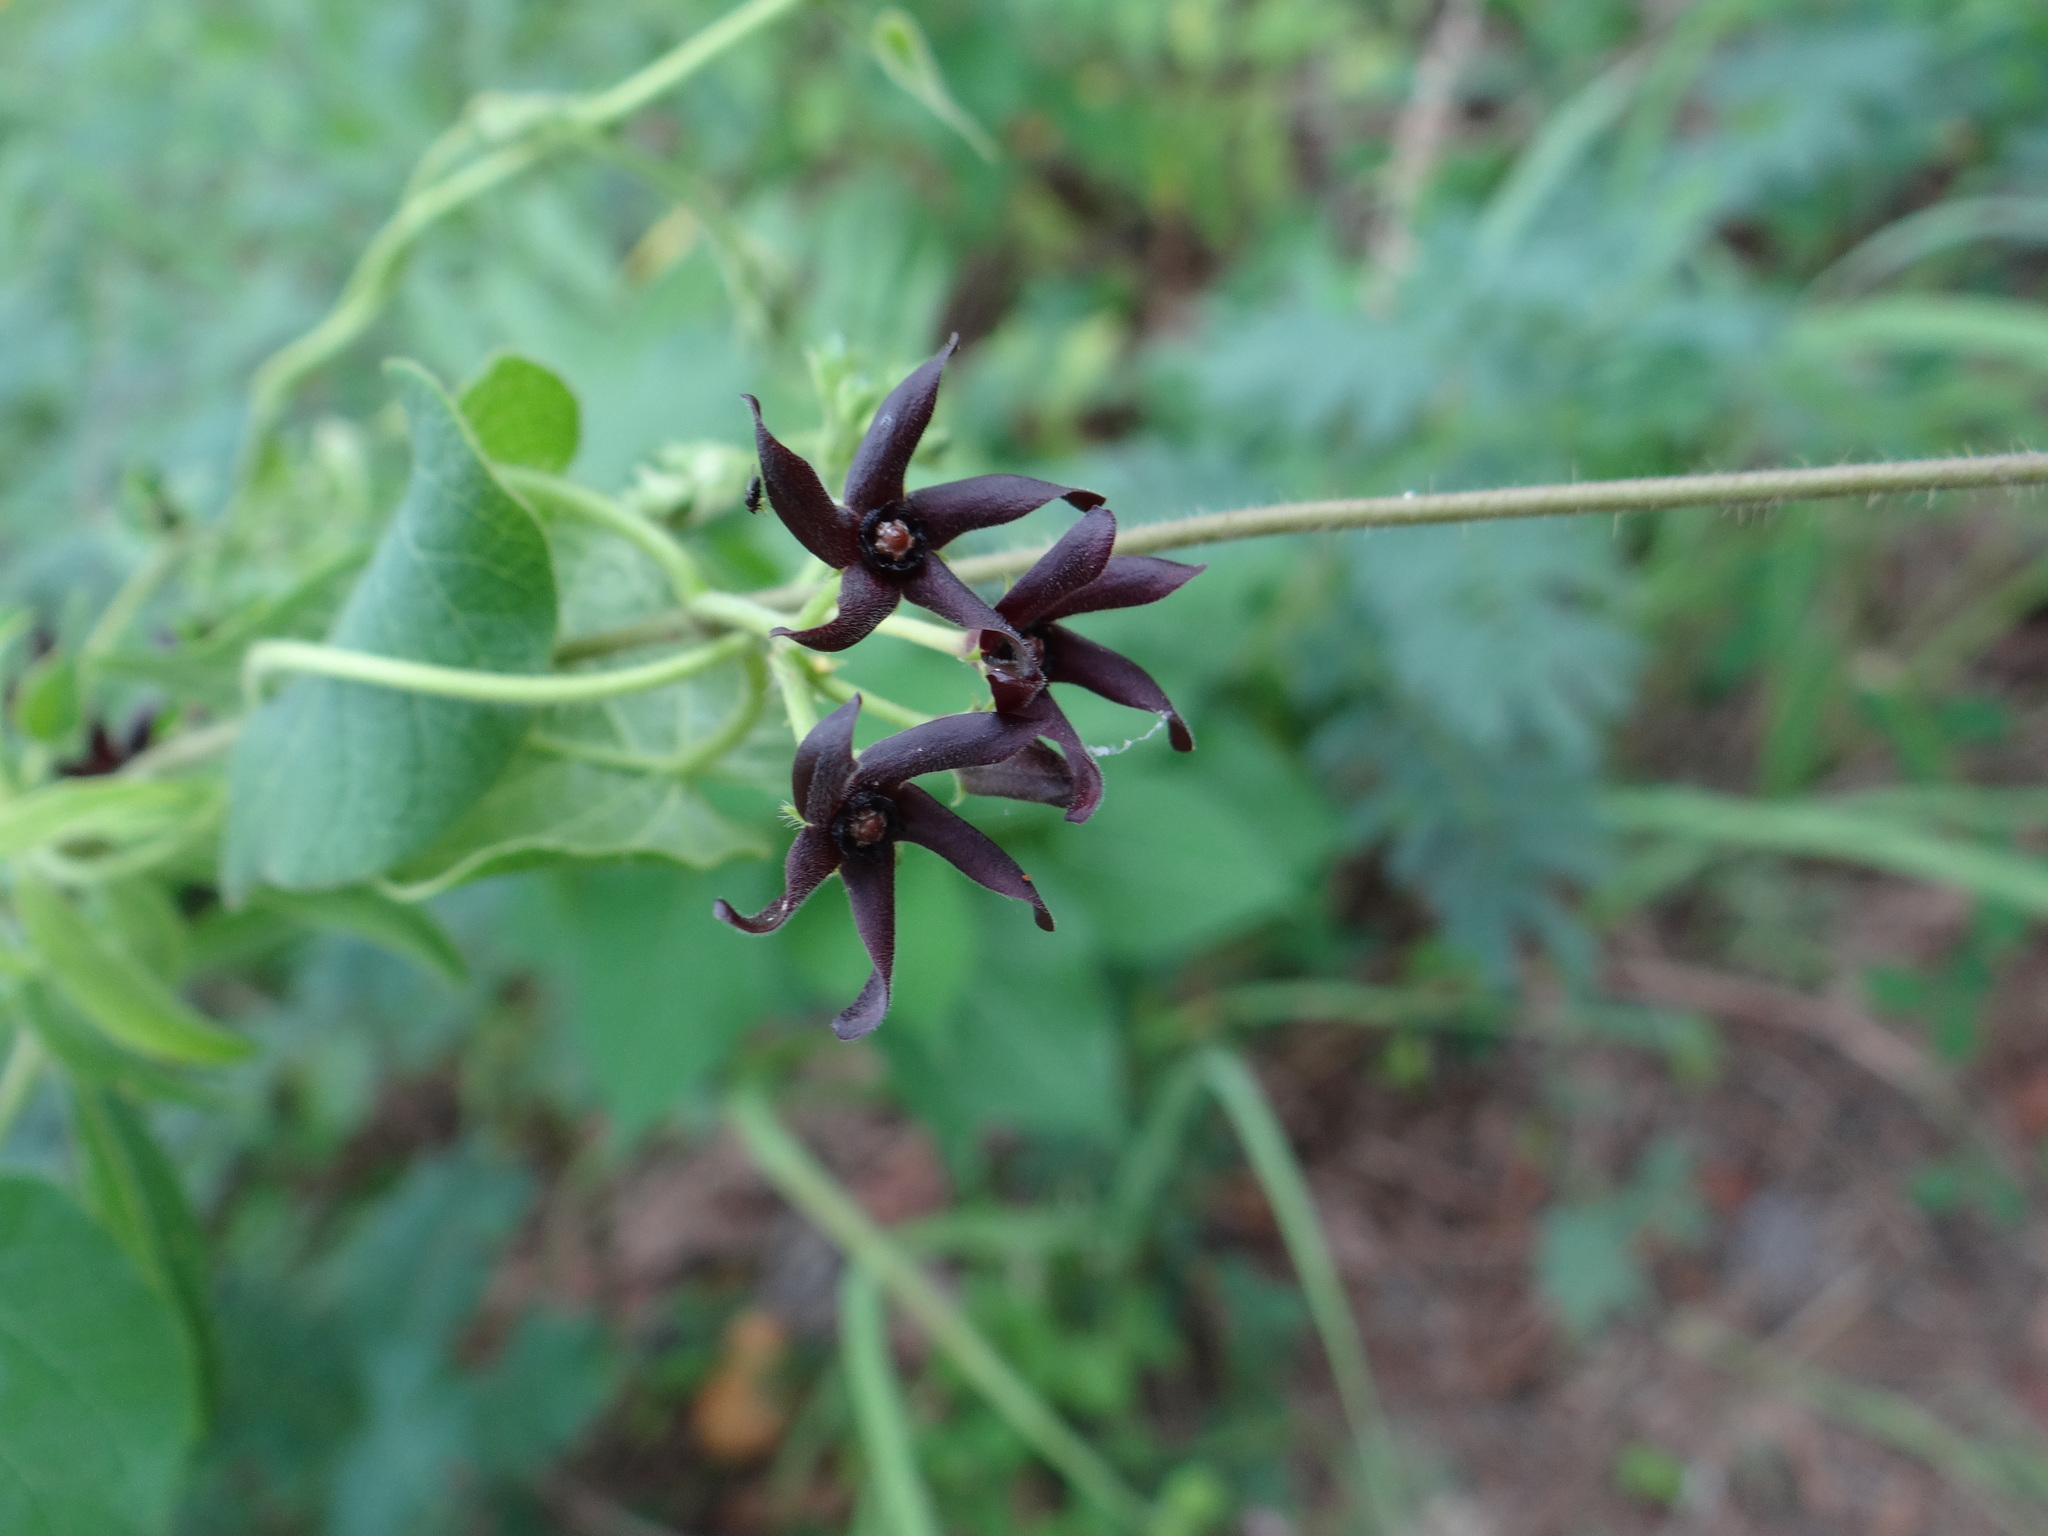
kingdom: Plantae
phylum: Tracheophyta
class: Magnoliopsida
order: Gentianales
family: Apocynaceae
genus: Matelea
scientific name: Matelea decipiens
